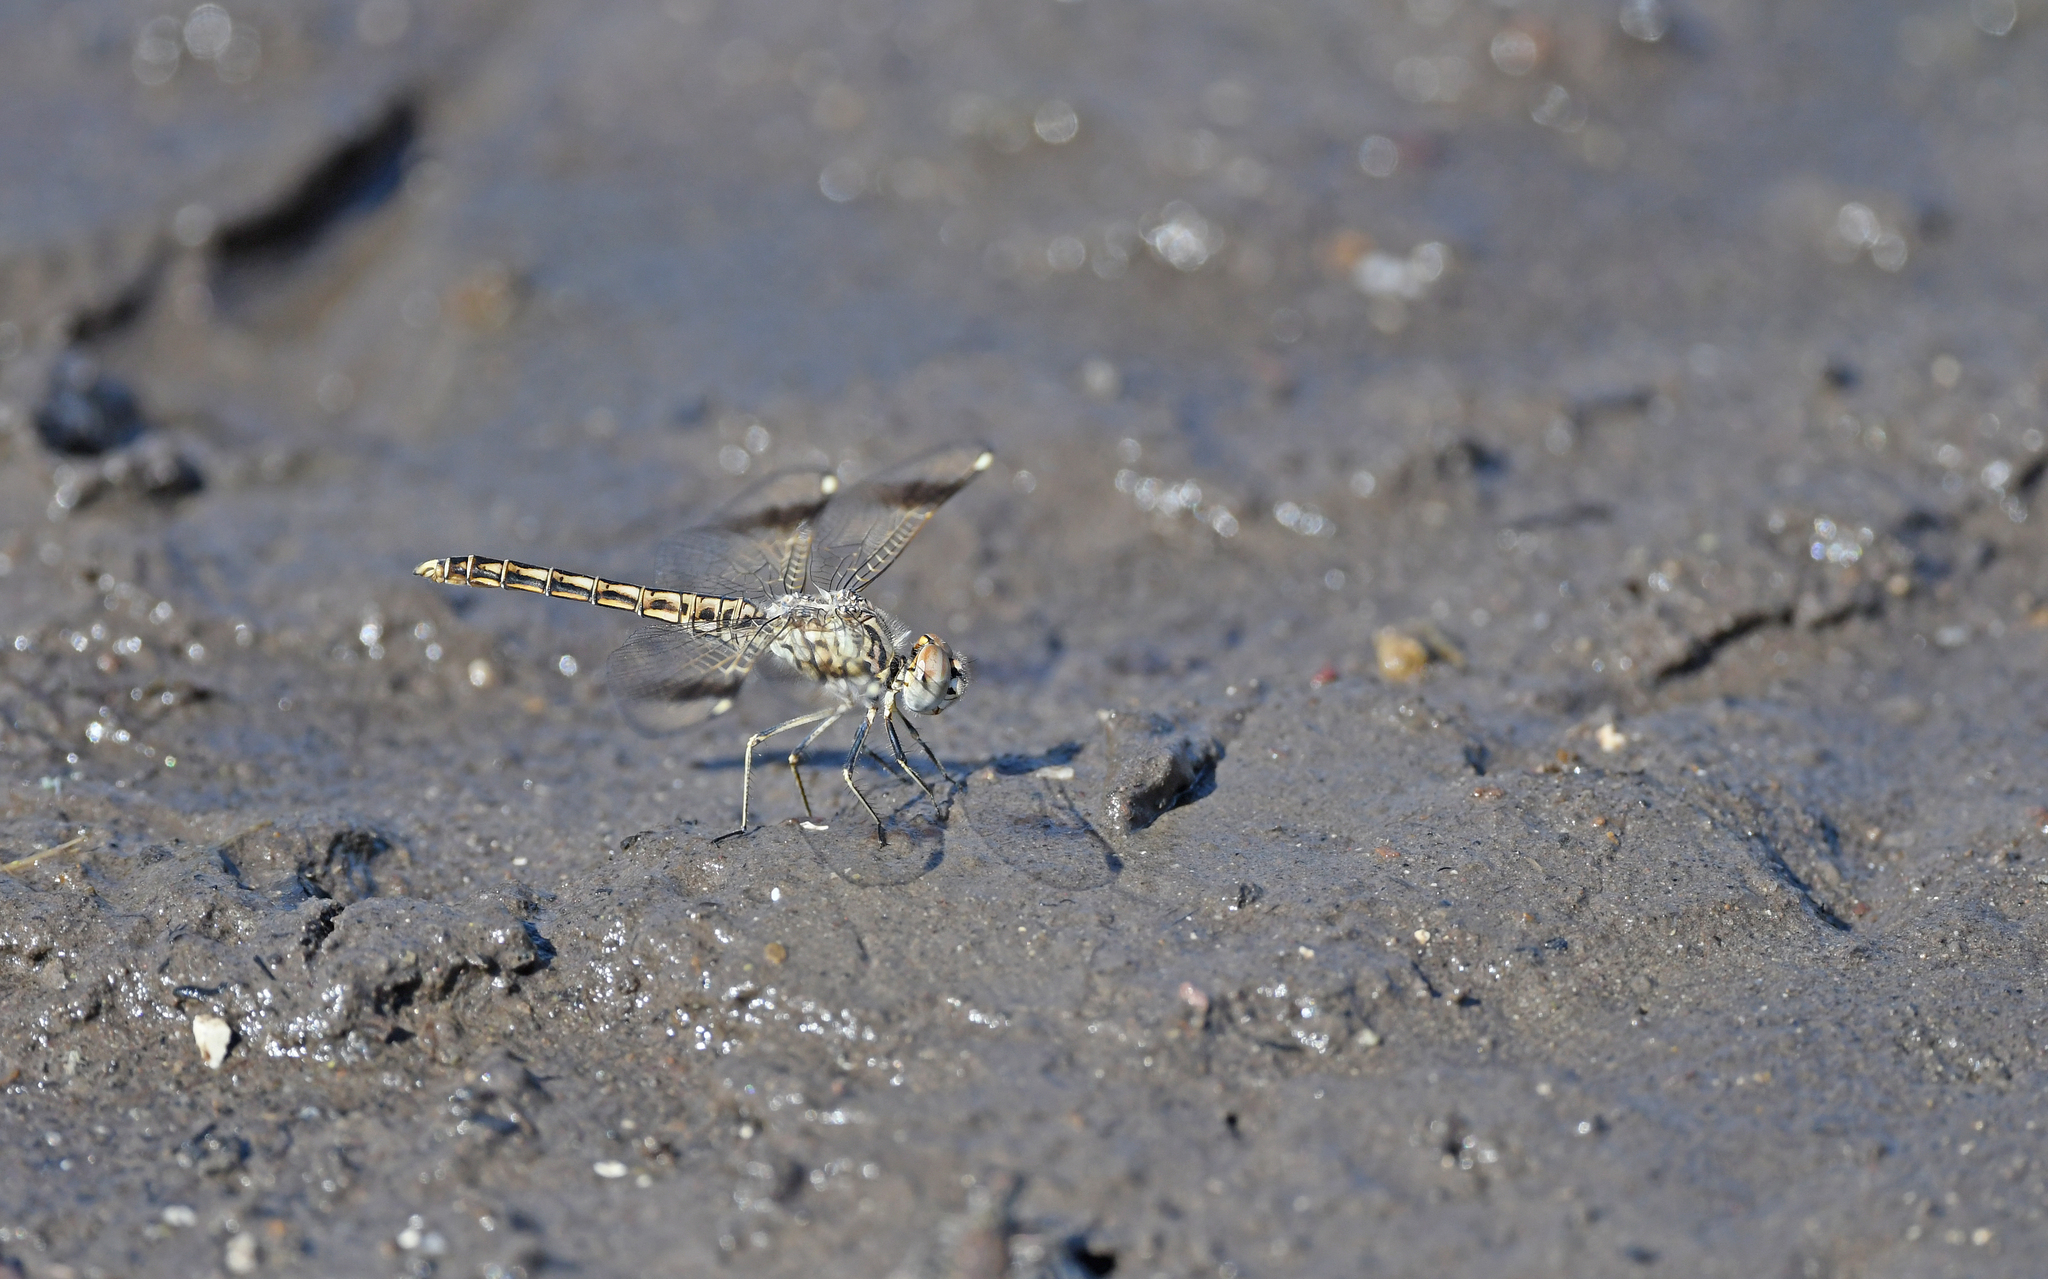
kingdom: Animalia
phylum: Arthropoda
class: Insecta
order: Odonata
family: Libellulidae
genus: Brachythemis
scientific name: Brachythemis impartita
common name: Banded groundling
